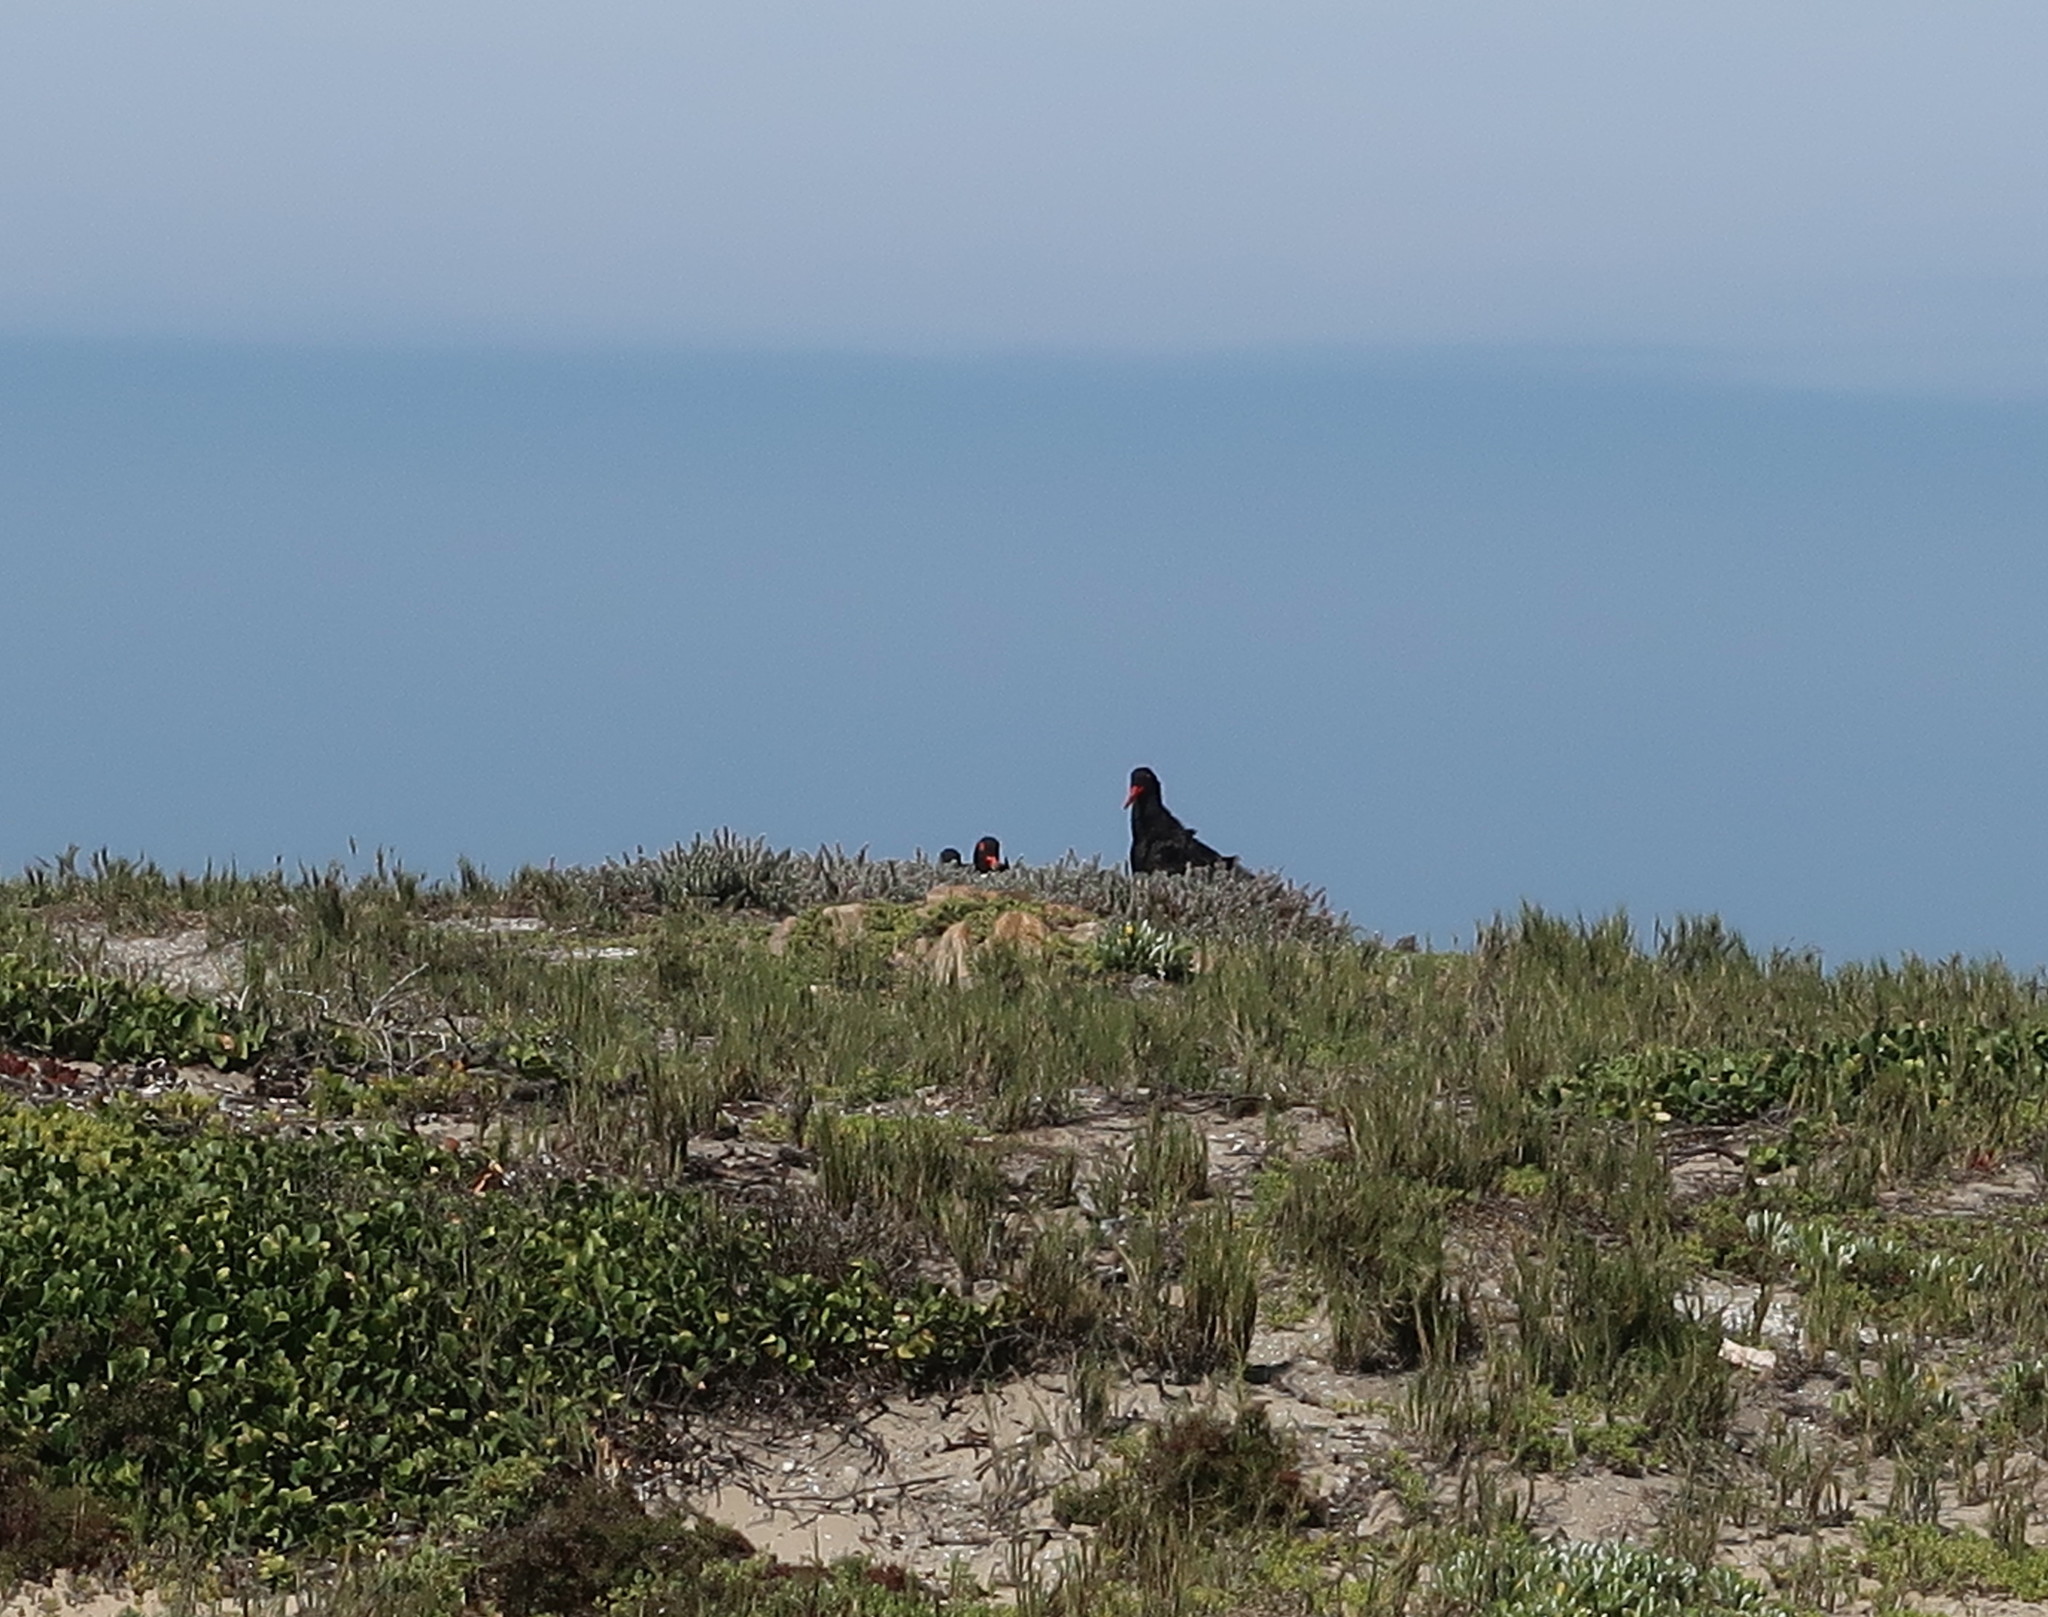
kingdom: Animalia
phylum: Chordata
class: Aves
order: Charadriiformes
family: Haematopodidae
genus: Haematopus
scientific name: Haematopus moquini
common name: African oystercatcher
